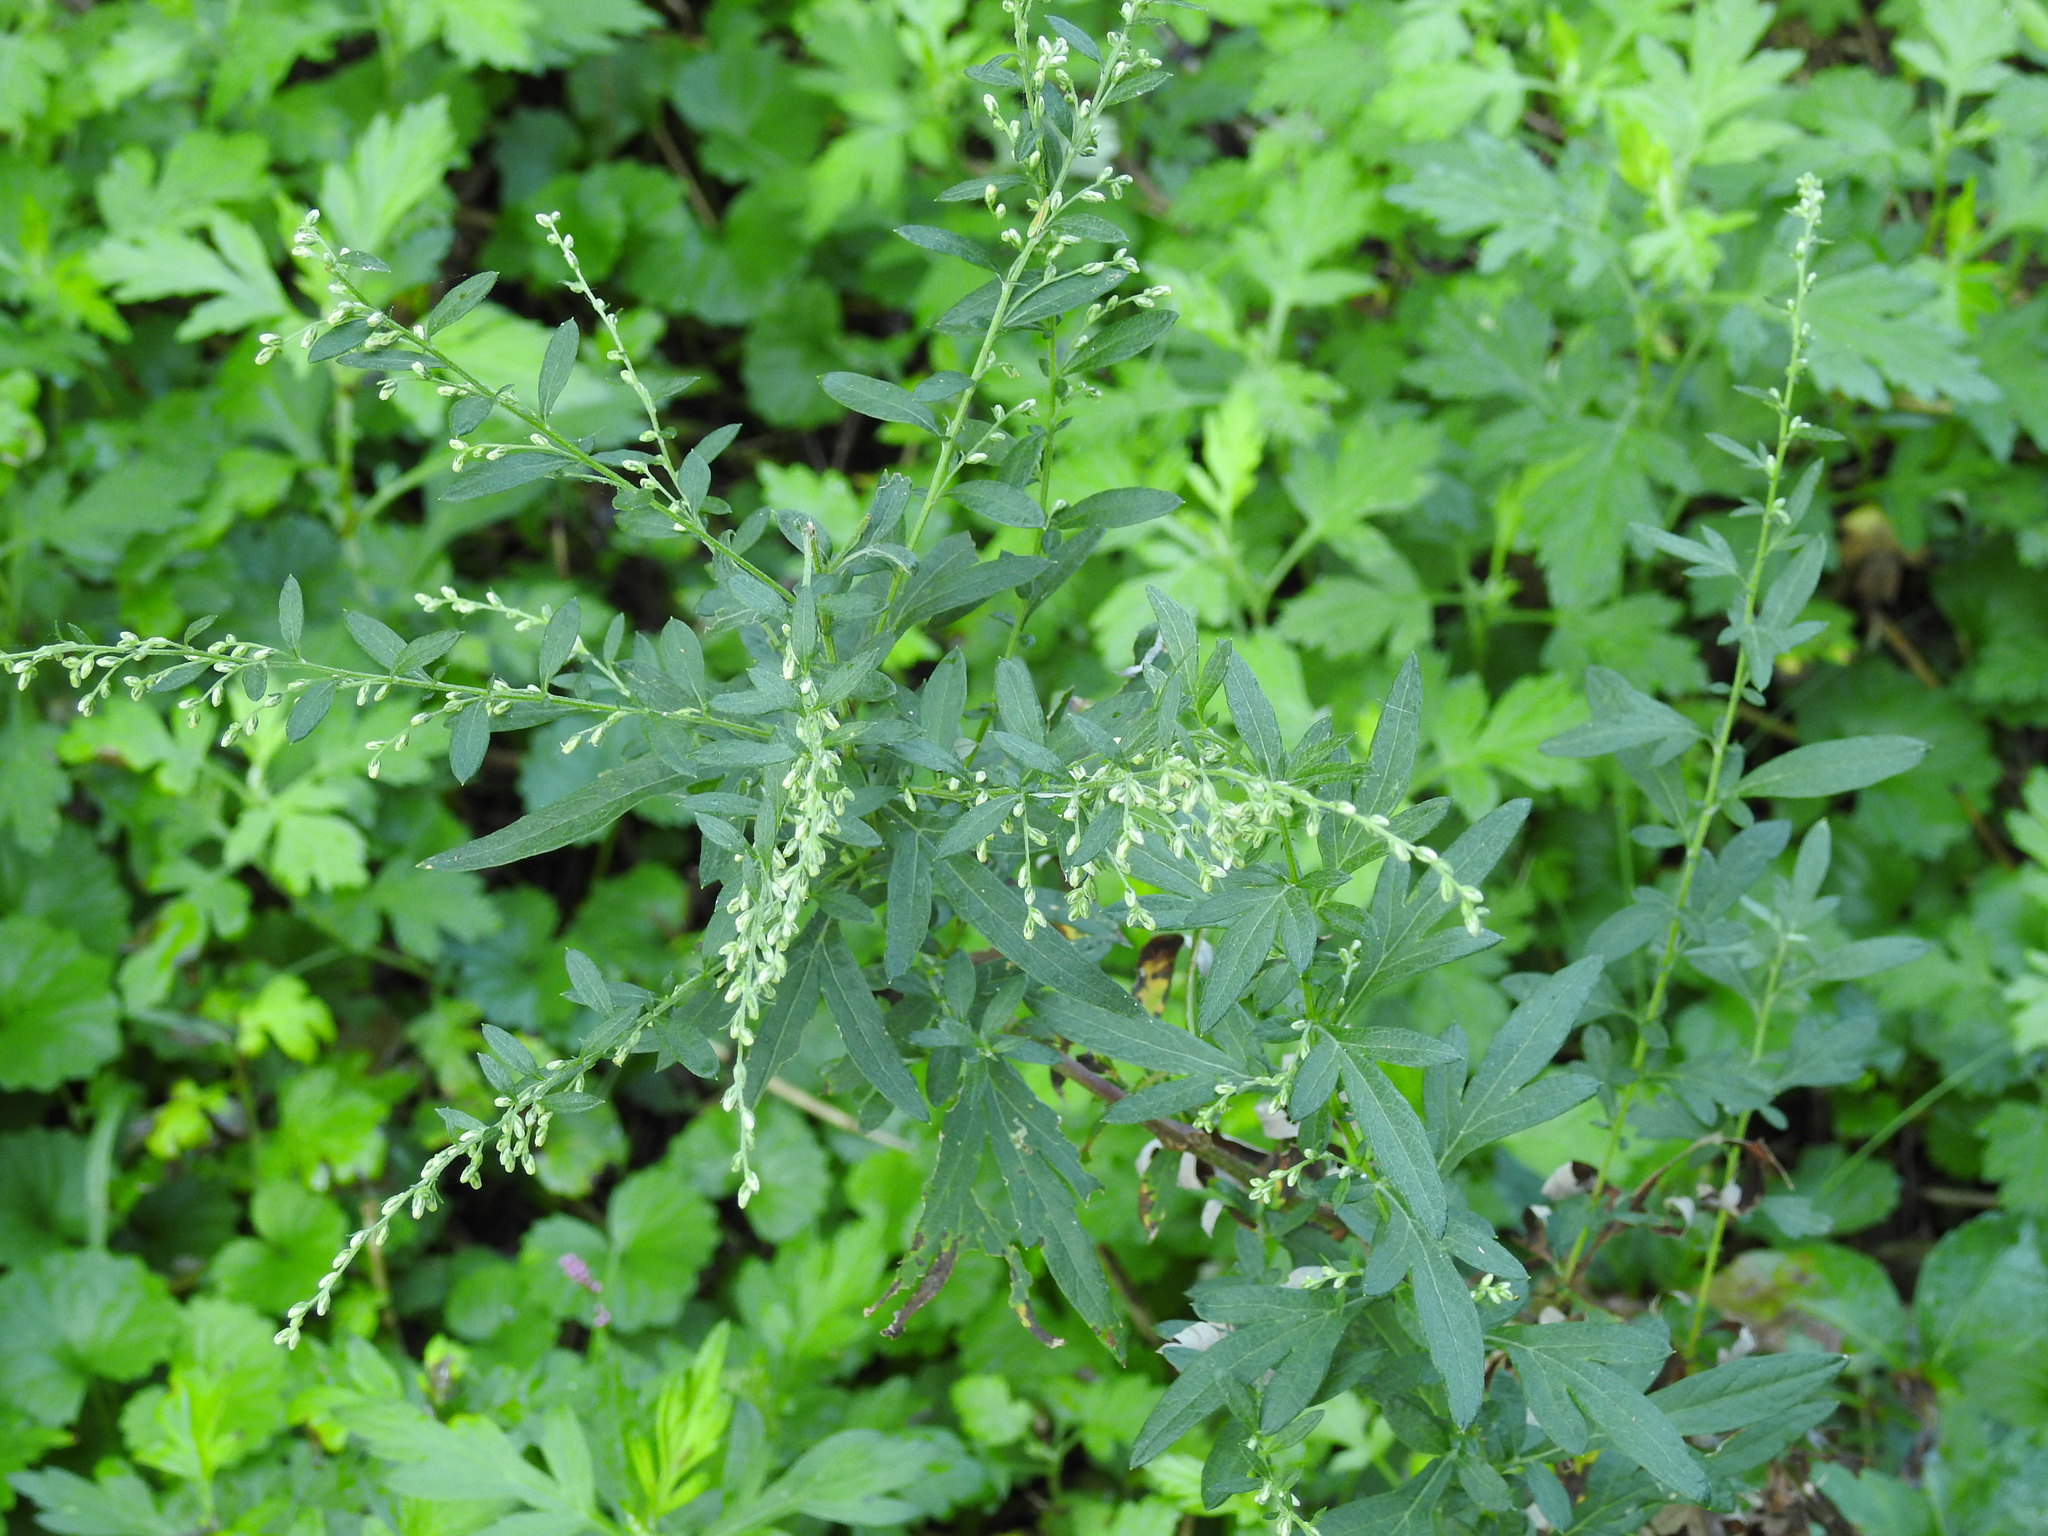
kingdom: Plantae
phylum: Tracheophyta
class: Magnoliopsida
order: Asterales
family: Asteraceae
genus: Artemisia
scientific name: Artemisia vulgaris
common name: Mugwort
